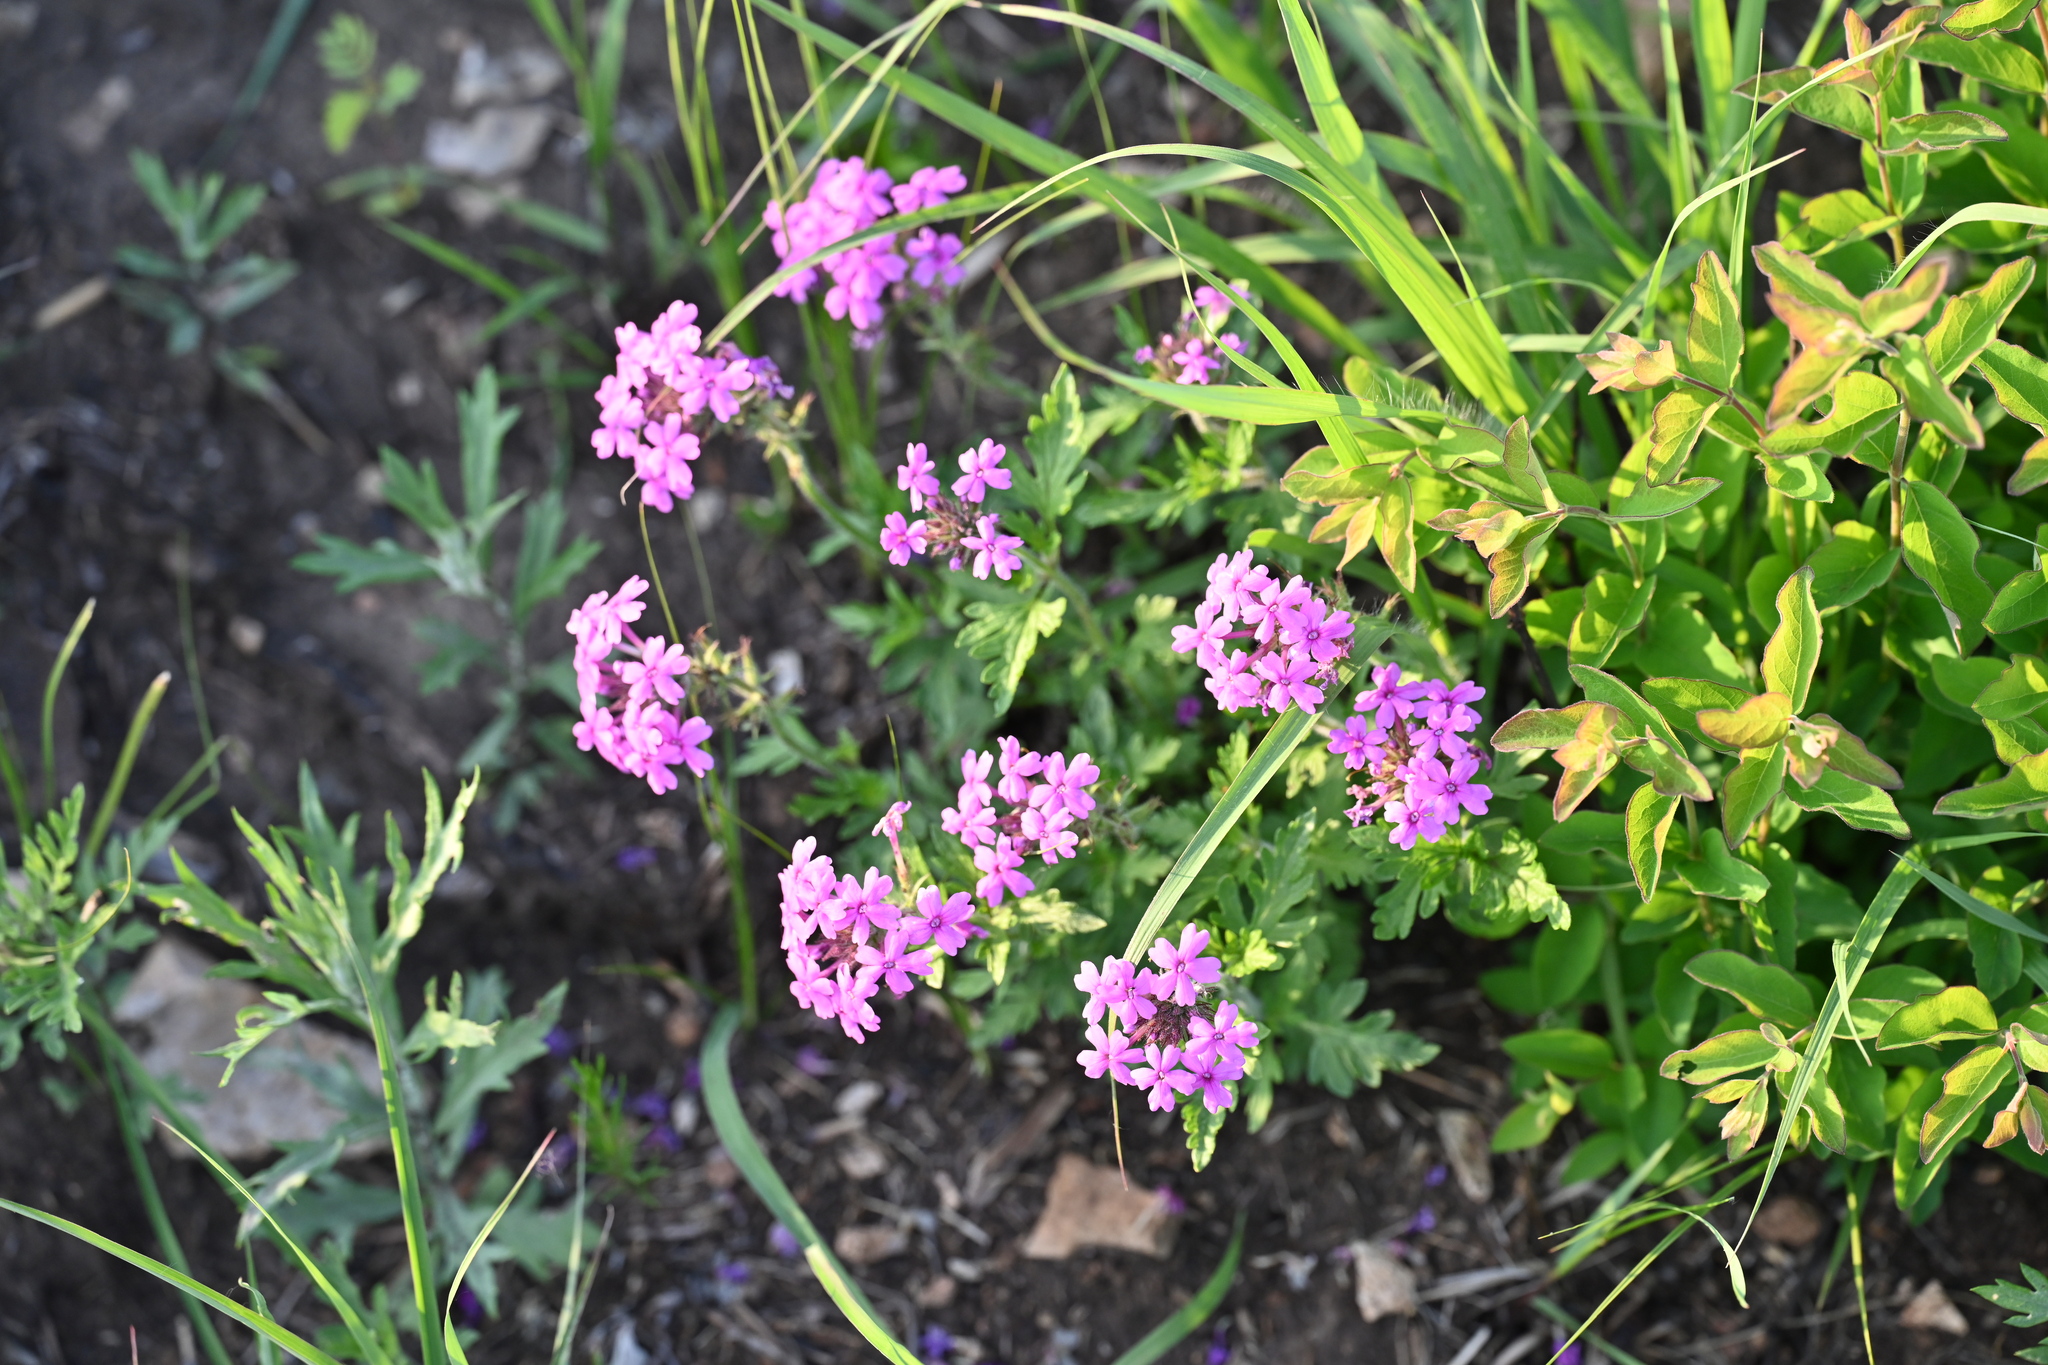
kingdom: Plantae
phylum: Tracheophyta
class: Magnoliopsida
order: Lamiales
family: Verbenaceae
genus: Verbena
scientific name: Verbena canadensis
